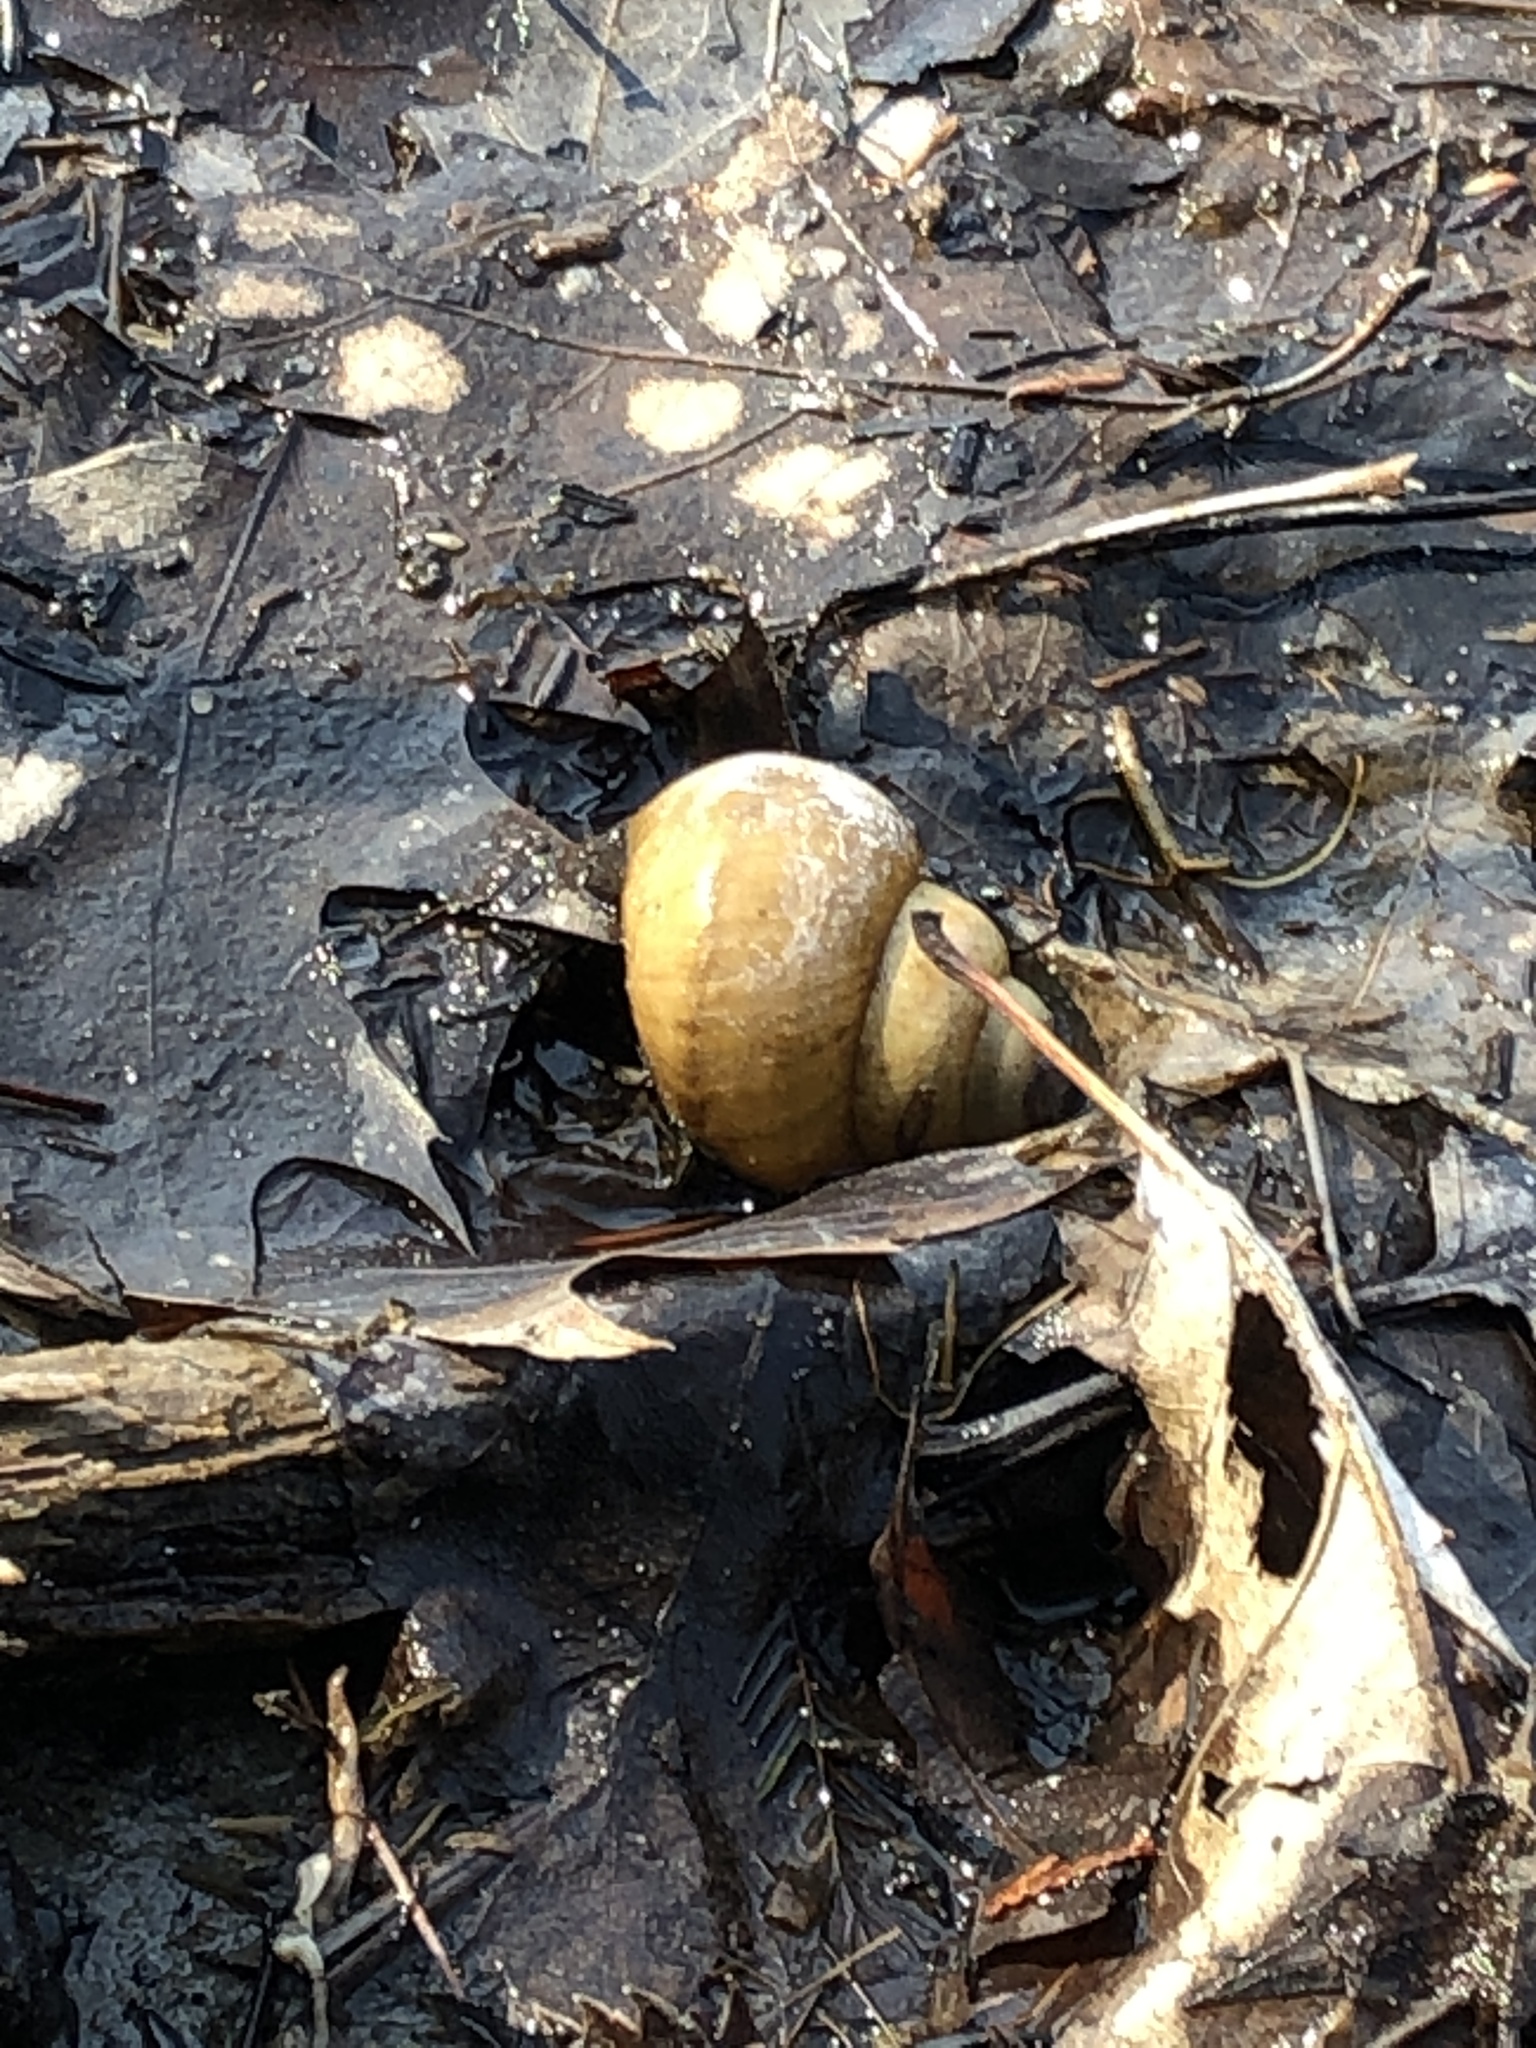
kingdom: Animalia
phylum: Mollusca
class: Gastropoda
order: Architaenioglossa
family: Viviparidae
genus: Cipangopaludina
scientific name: Cipangopaludina chinensis
